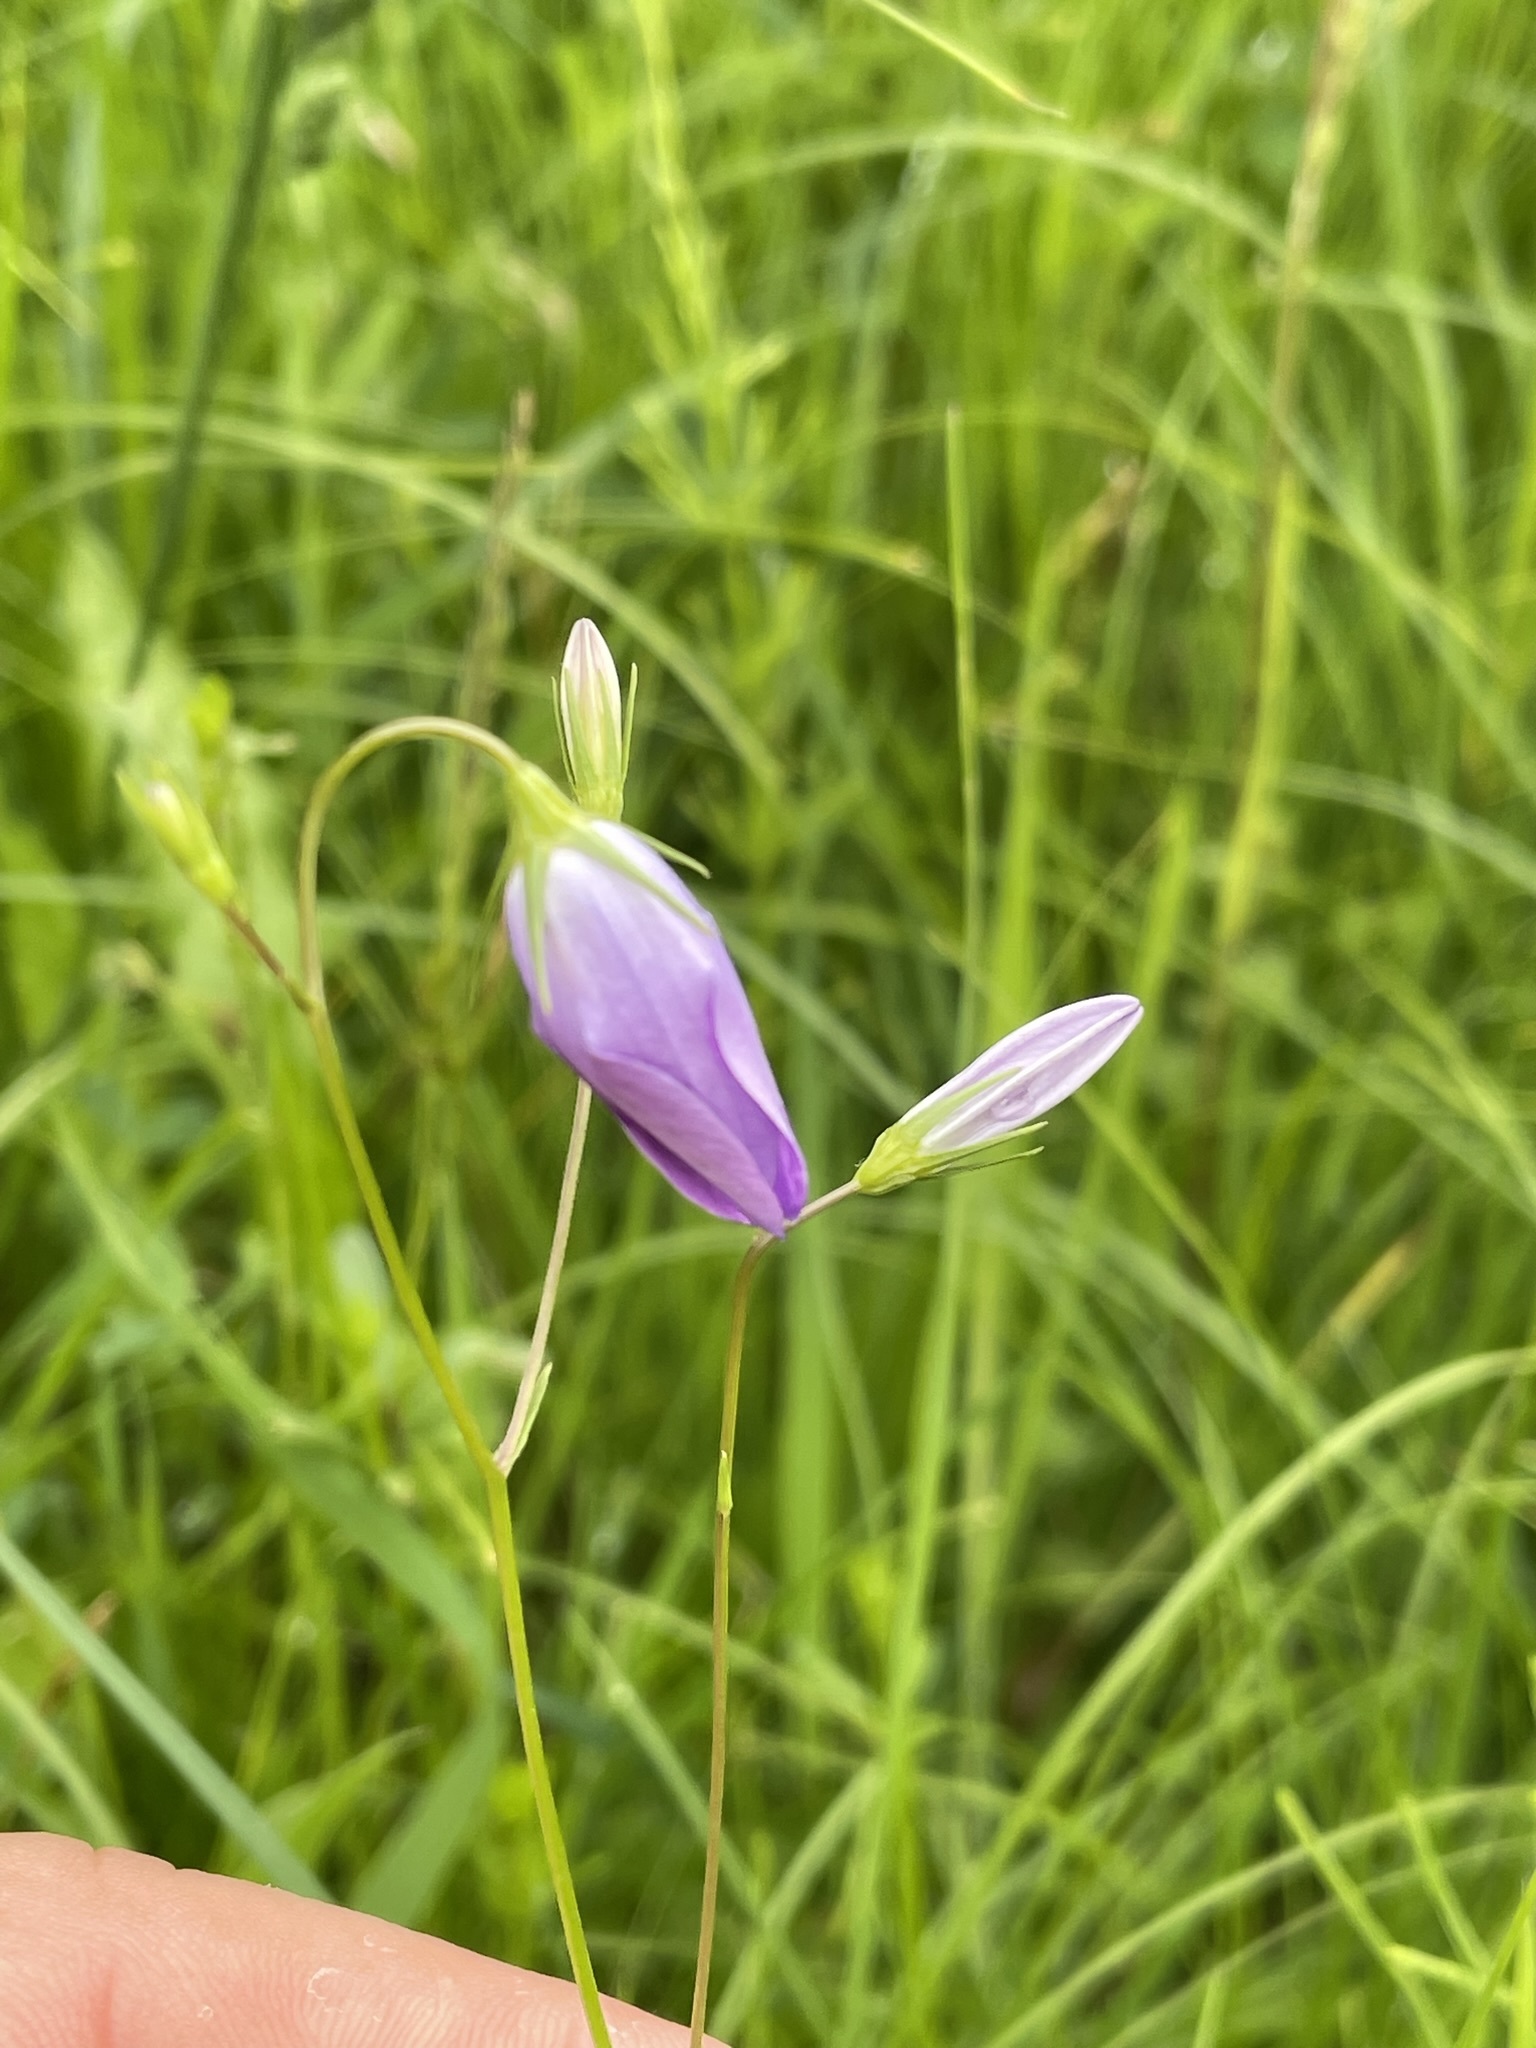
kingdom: Plantae
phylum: Tracheophyta
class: Magnoliopsida
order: Asterales
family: Campanulaceae
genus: Campanula
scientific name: Campanula patula
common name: Spreading bellflower
